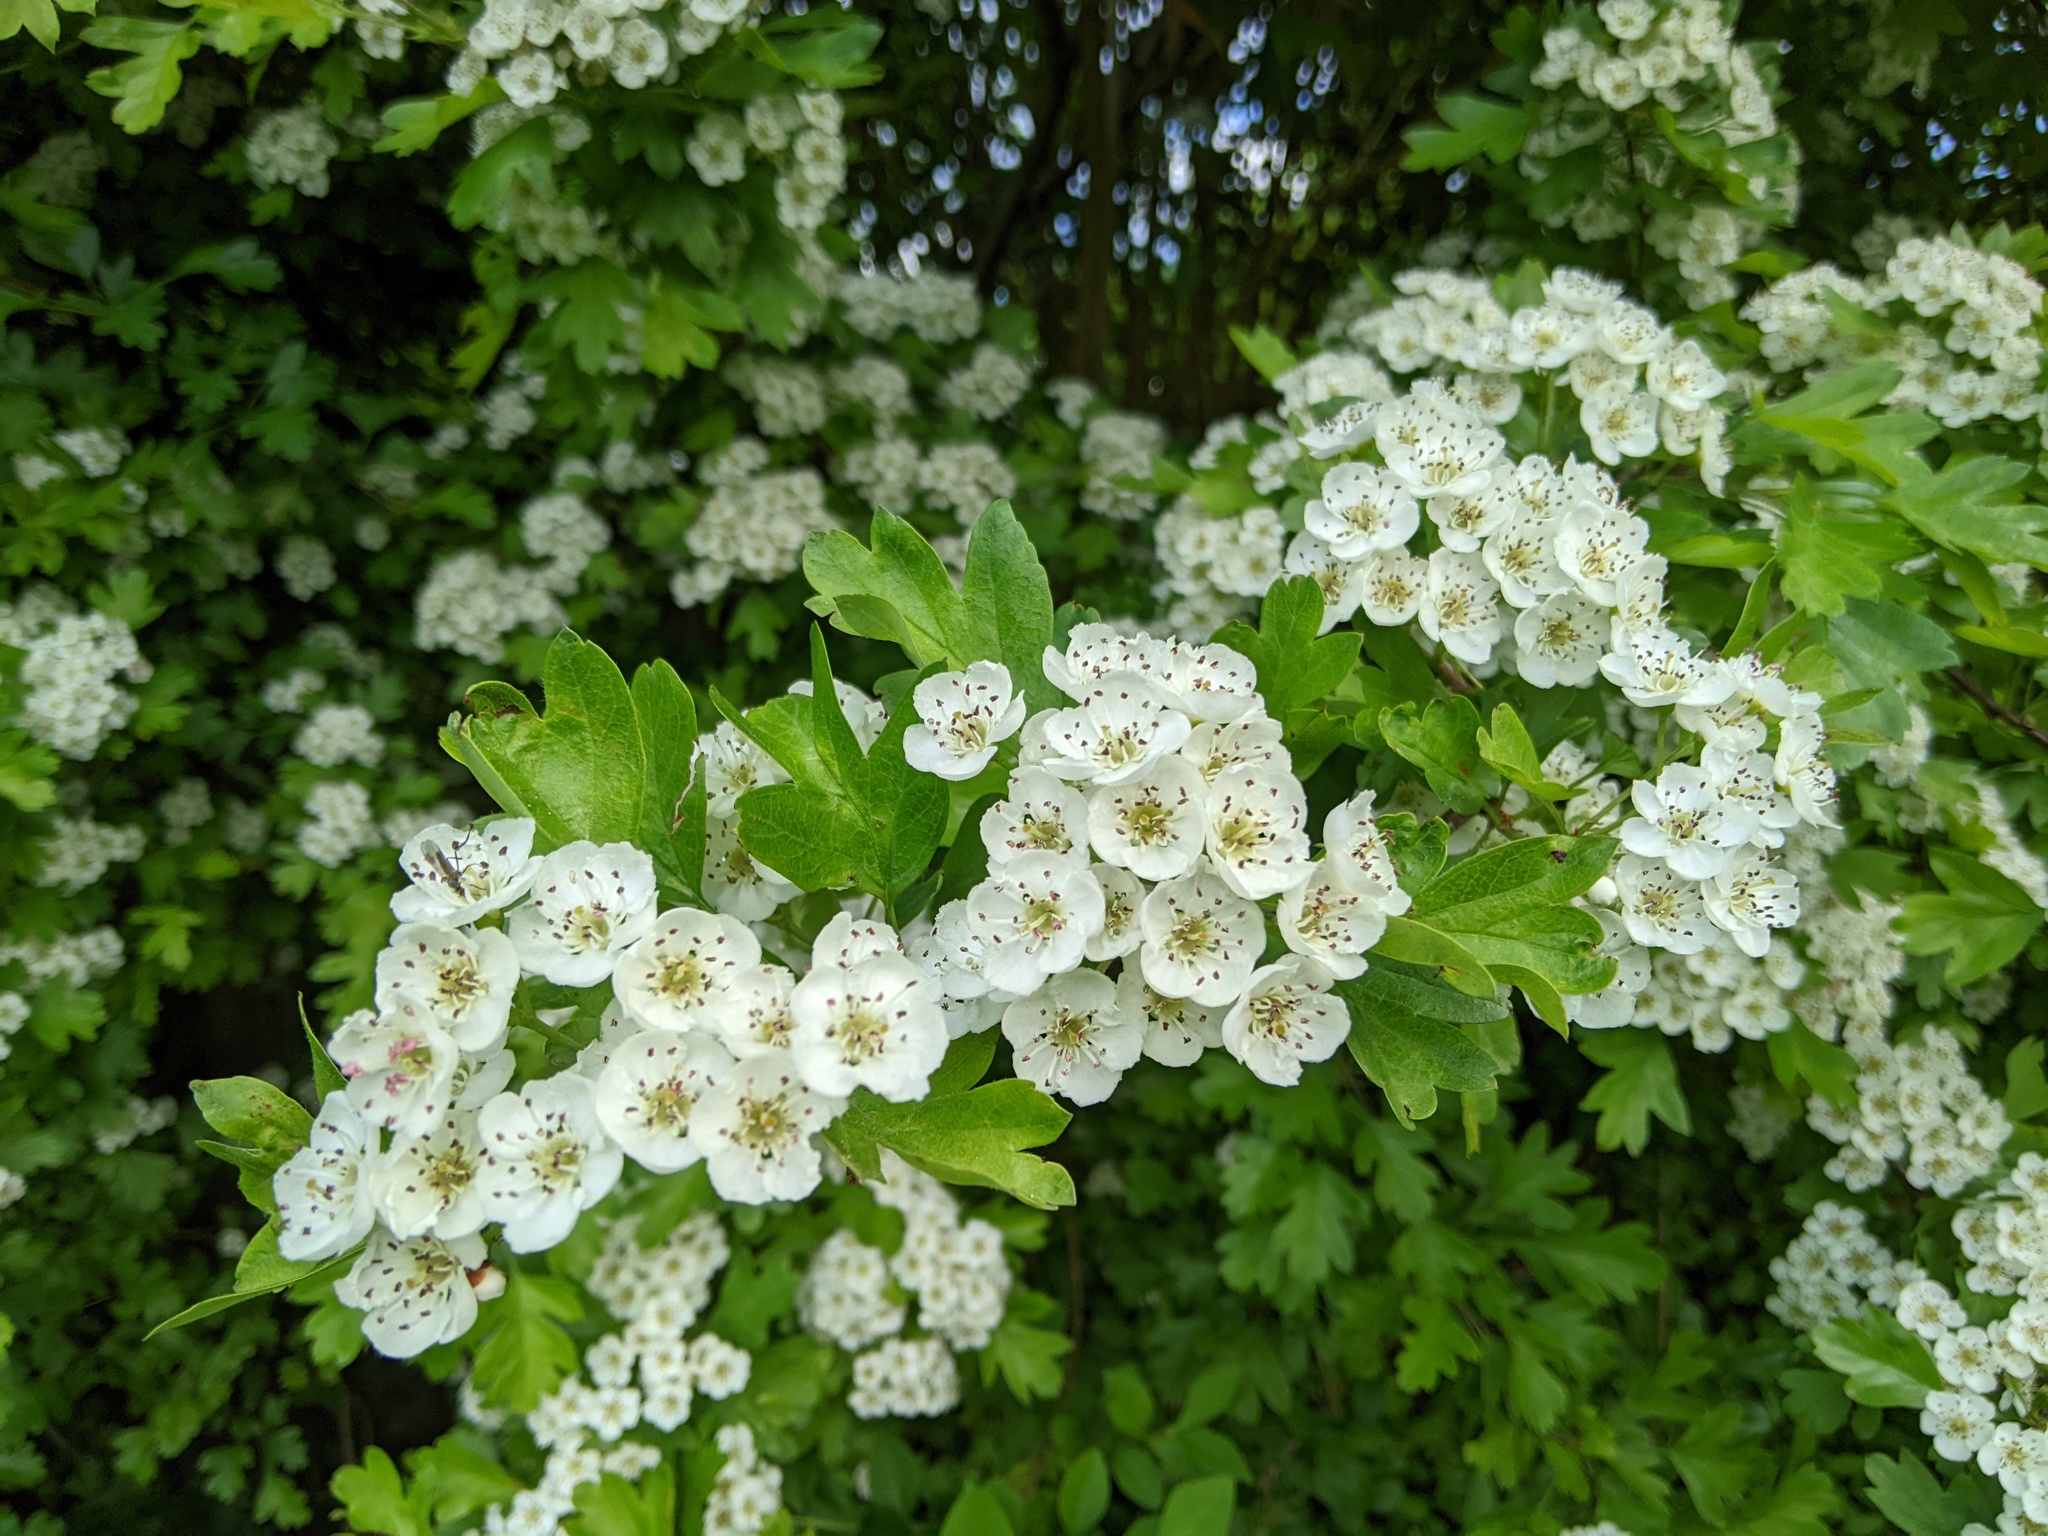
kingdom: Plantae
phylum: Tracheophyta
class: Magnoliopsida
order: Rosales
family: Rosaceae
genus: Crataegus
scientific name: Crataegus monogyna
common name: Hawthorn
